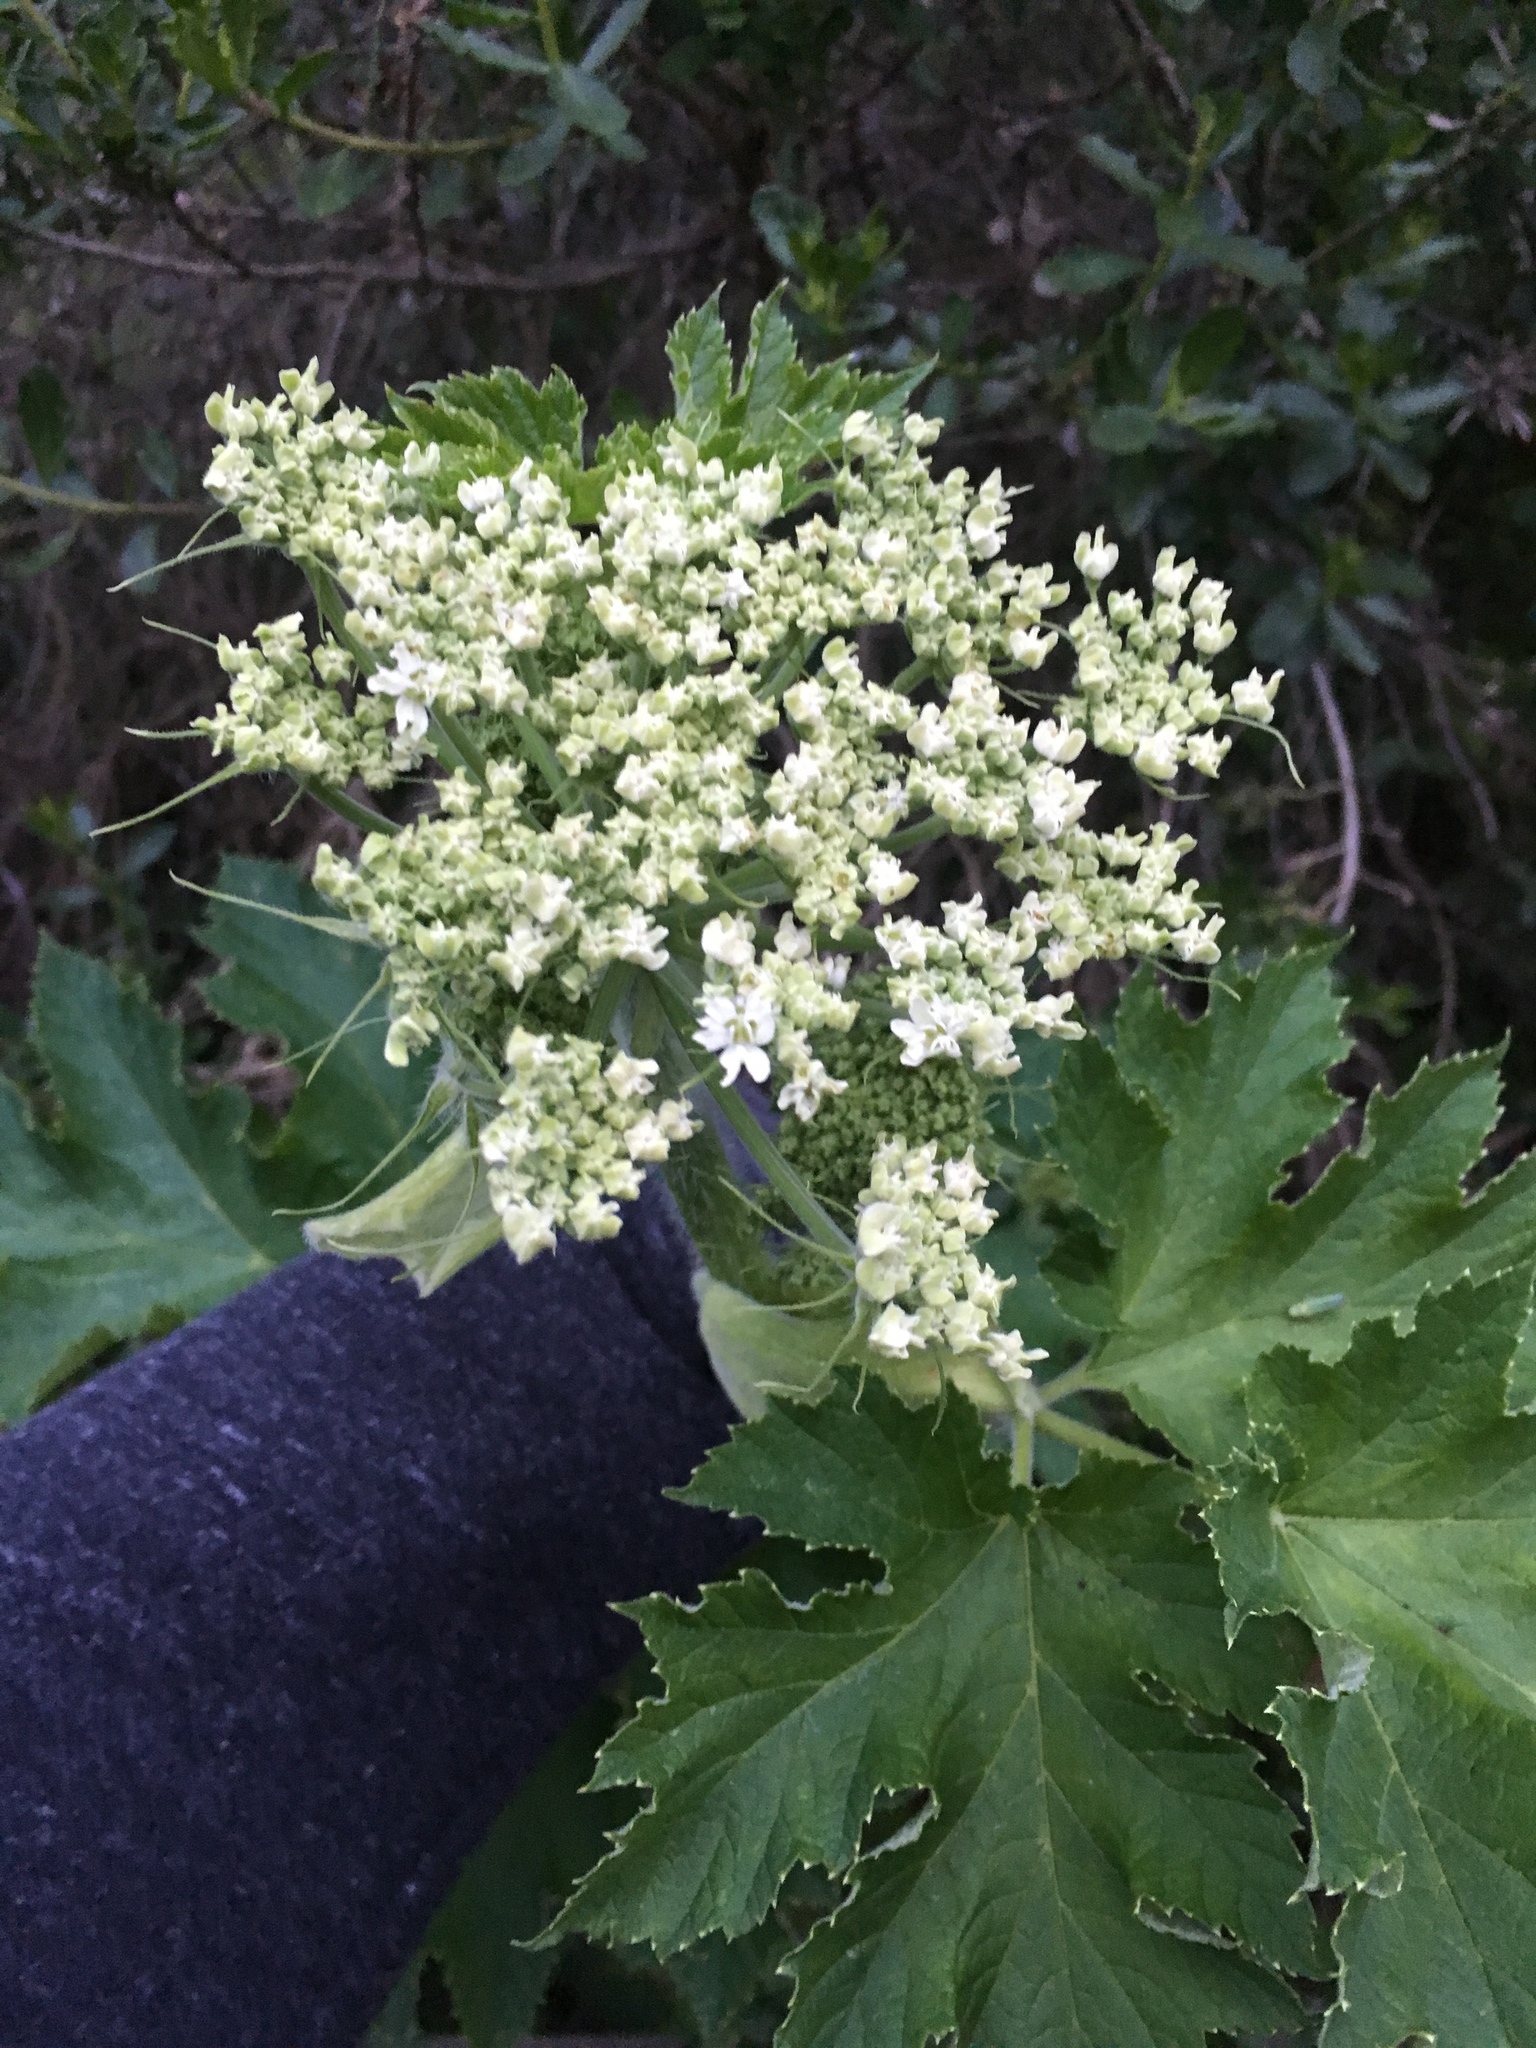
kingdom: Plantae
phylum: Tracheophyta
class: Magnoliopsida
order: Apiales
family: Apiaceae
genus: Heracleum
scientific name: Heracleum maximum
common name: American cow parsnip
